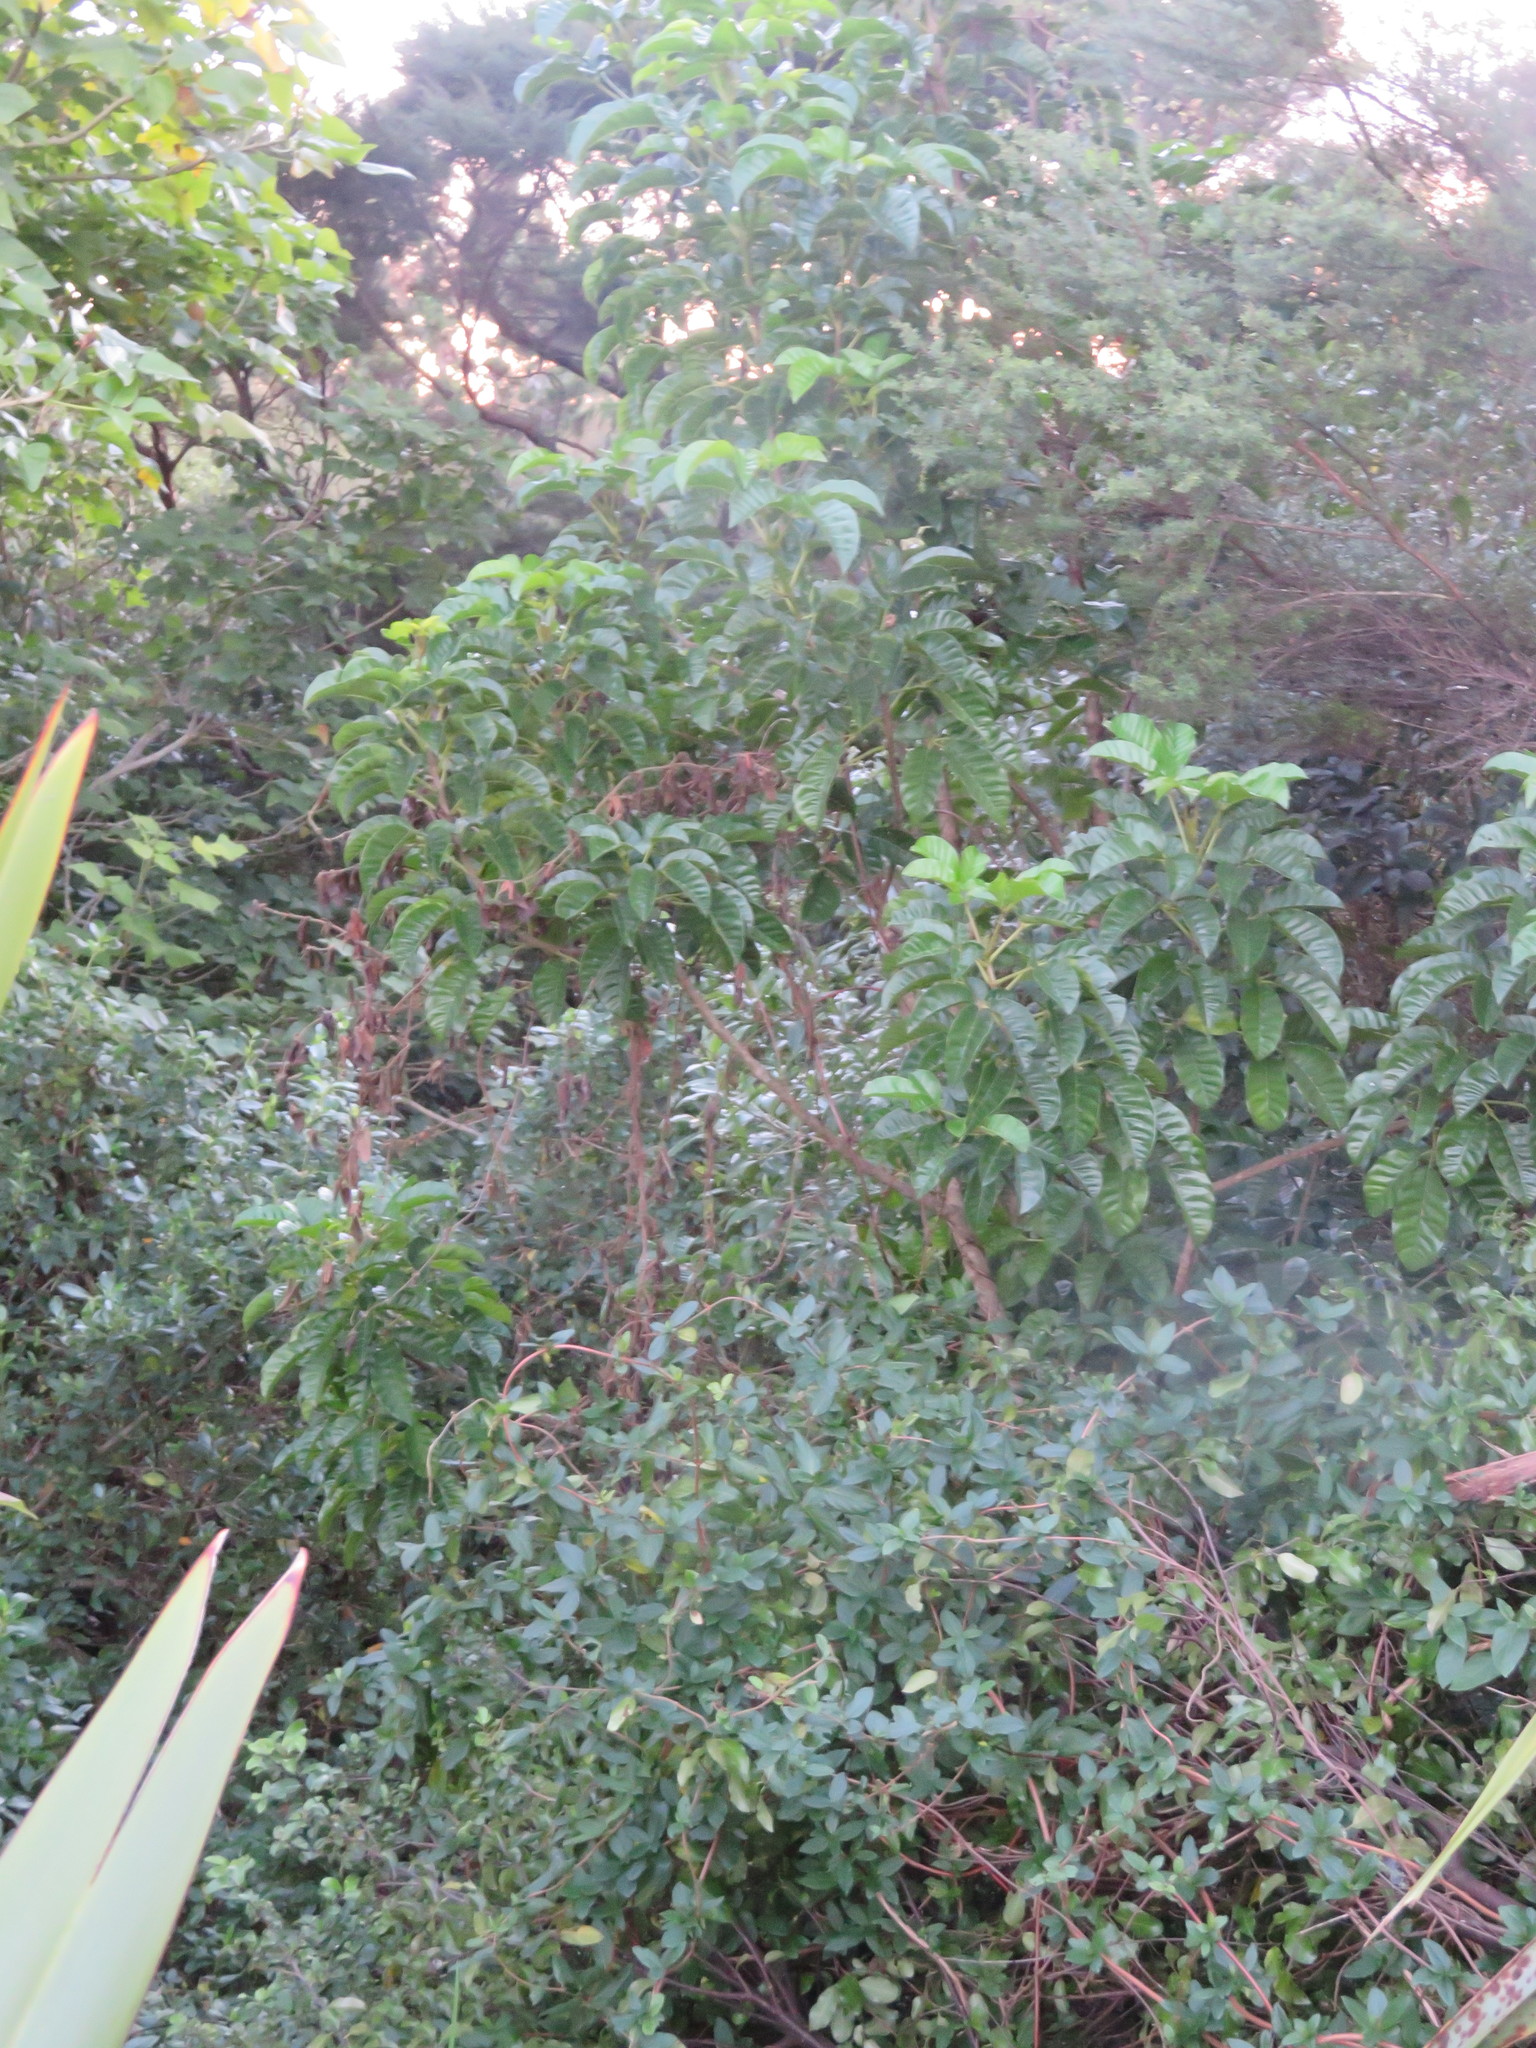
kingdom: Plantae
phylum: Tracheophyta
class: Magnoliopsida
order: Lamiales
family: Lamiaceae
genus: Vitex
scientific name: Vitex lucens
